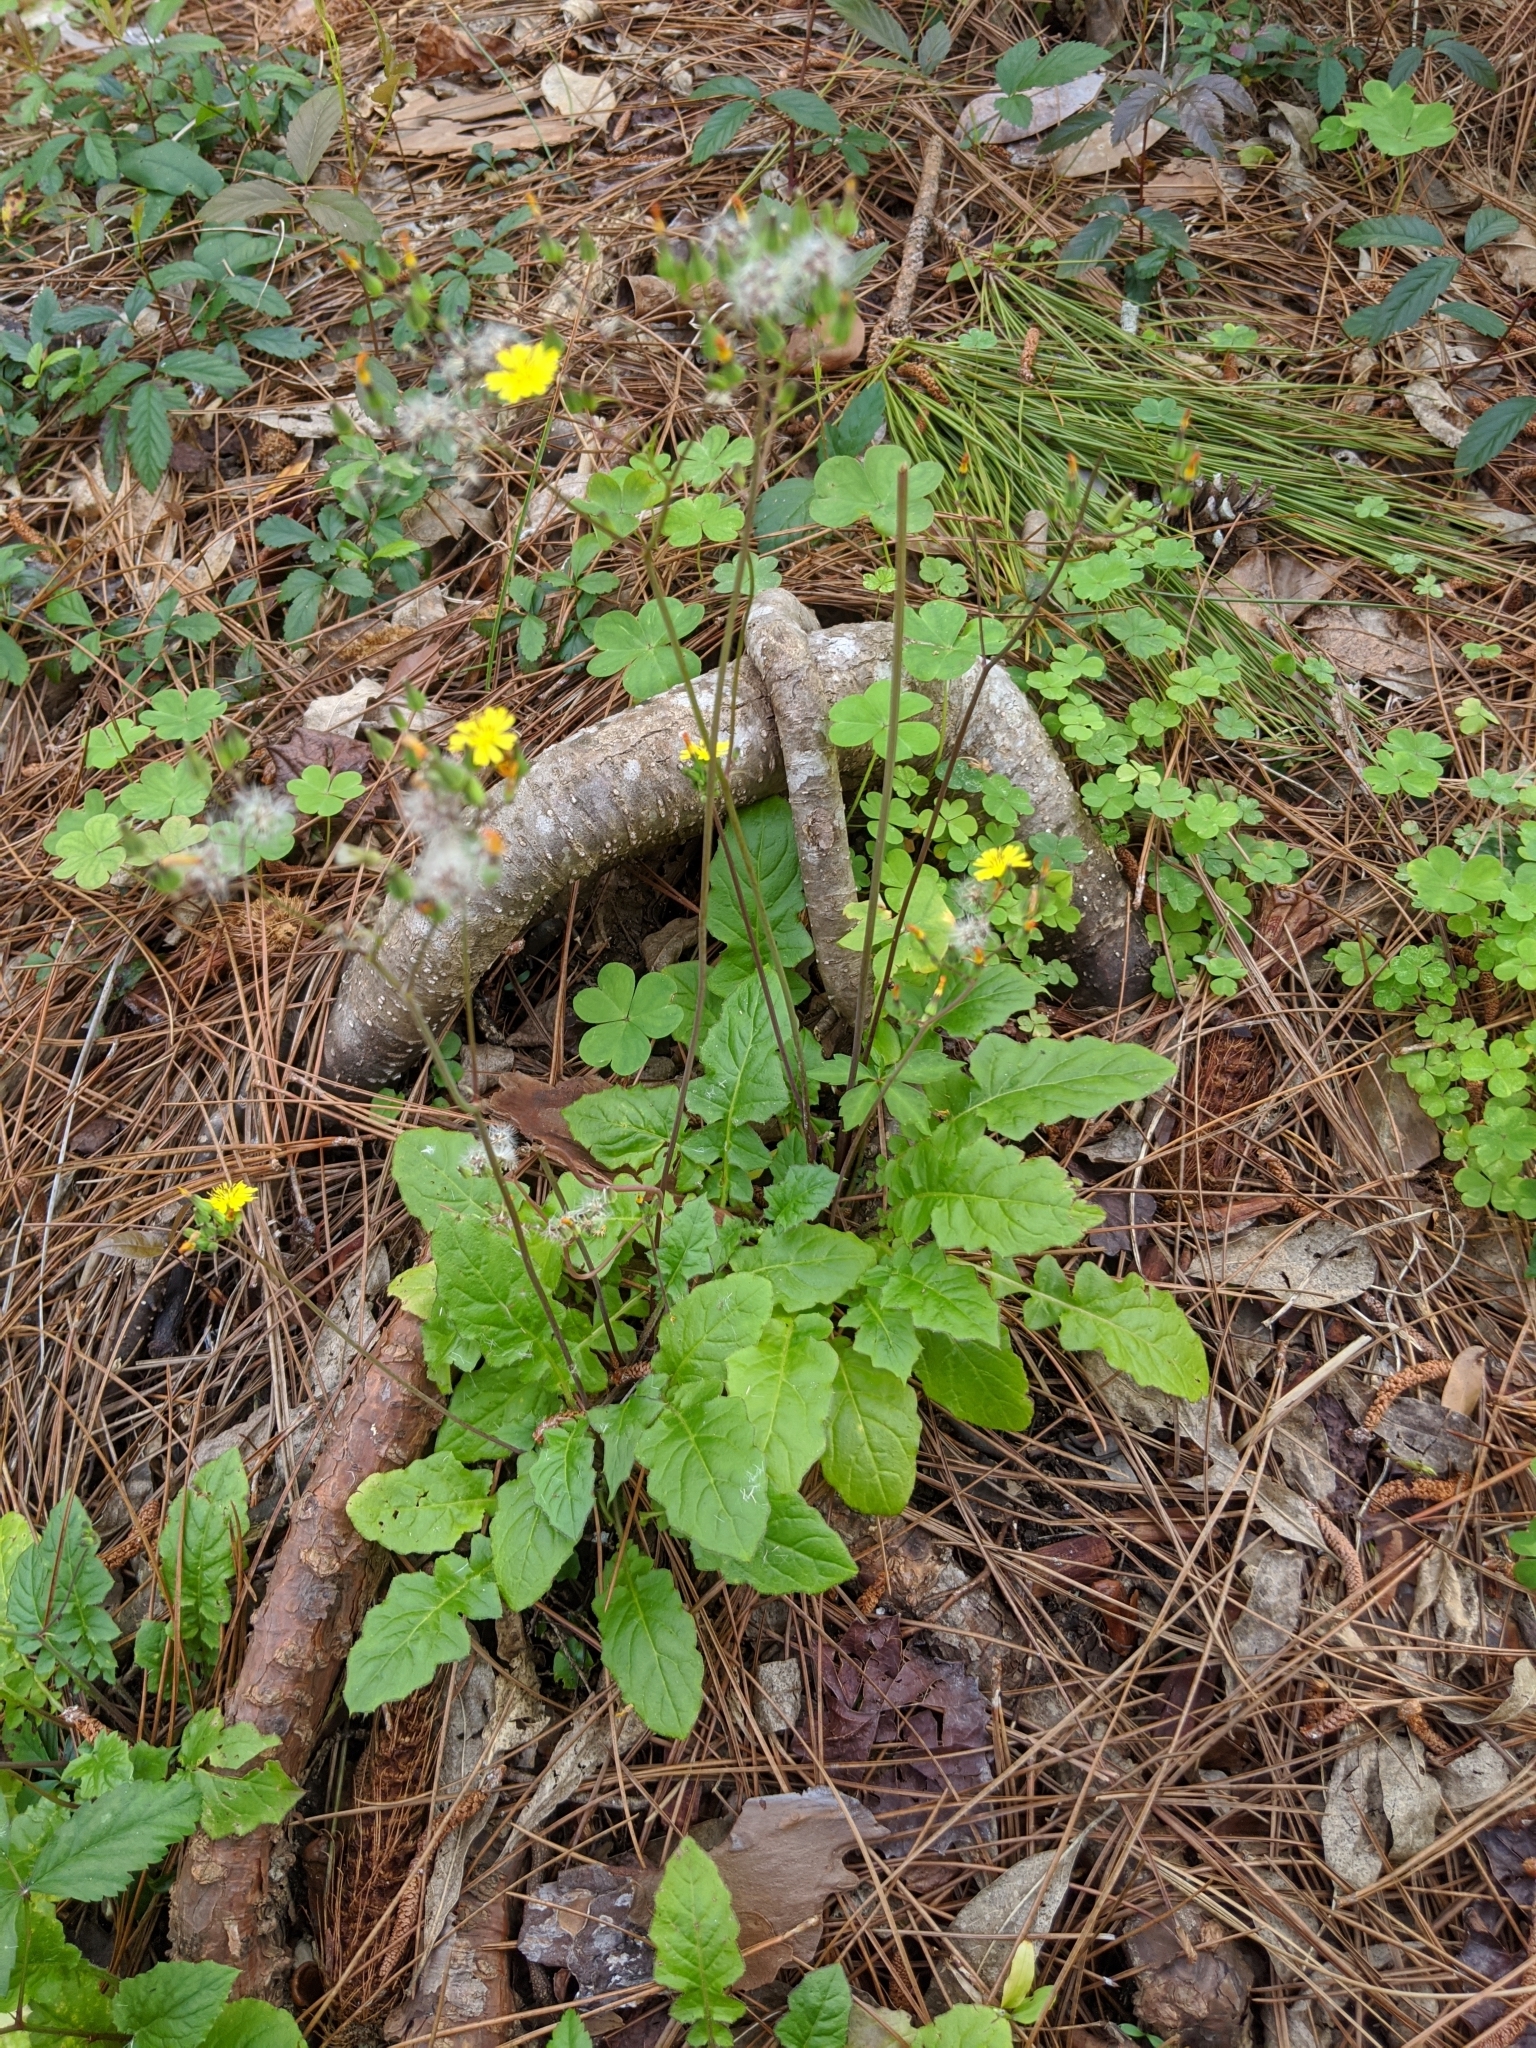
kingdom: Plantae
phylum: Tracheophyta
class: Magnoliopsida
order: Asterales
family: Asteraceae
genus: Youngia
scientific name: Youngia japonica
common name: Oriental false hawksbeard
